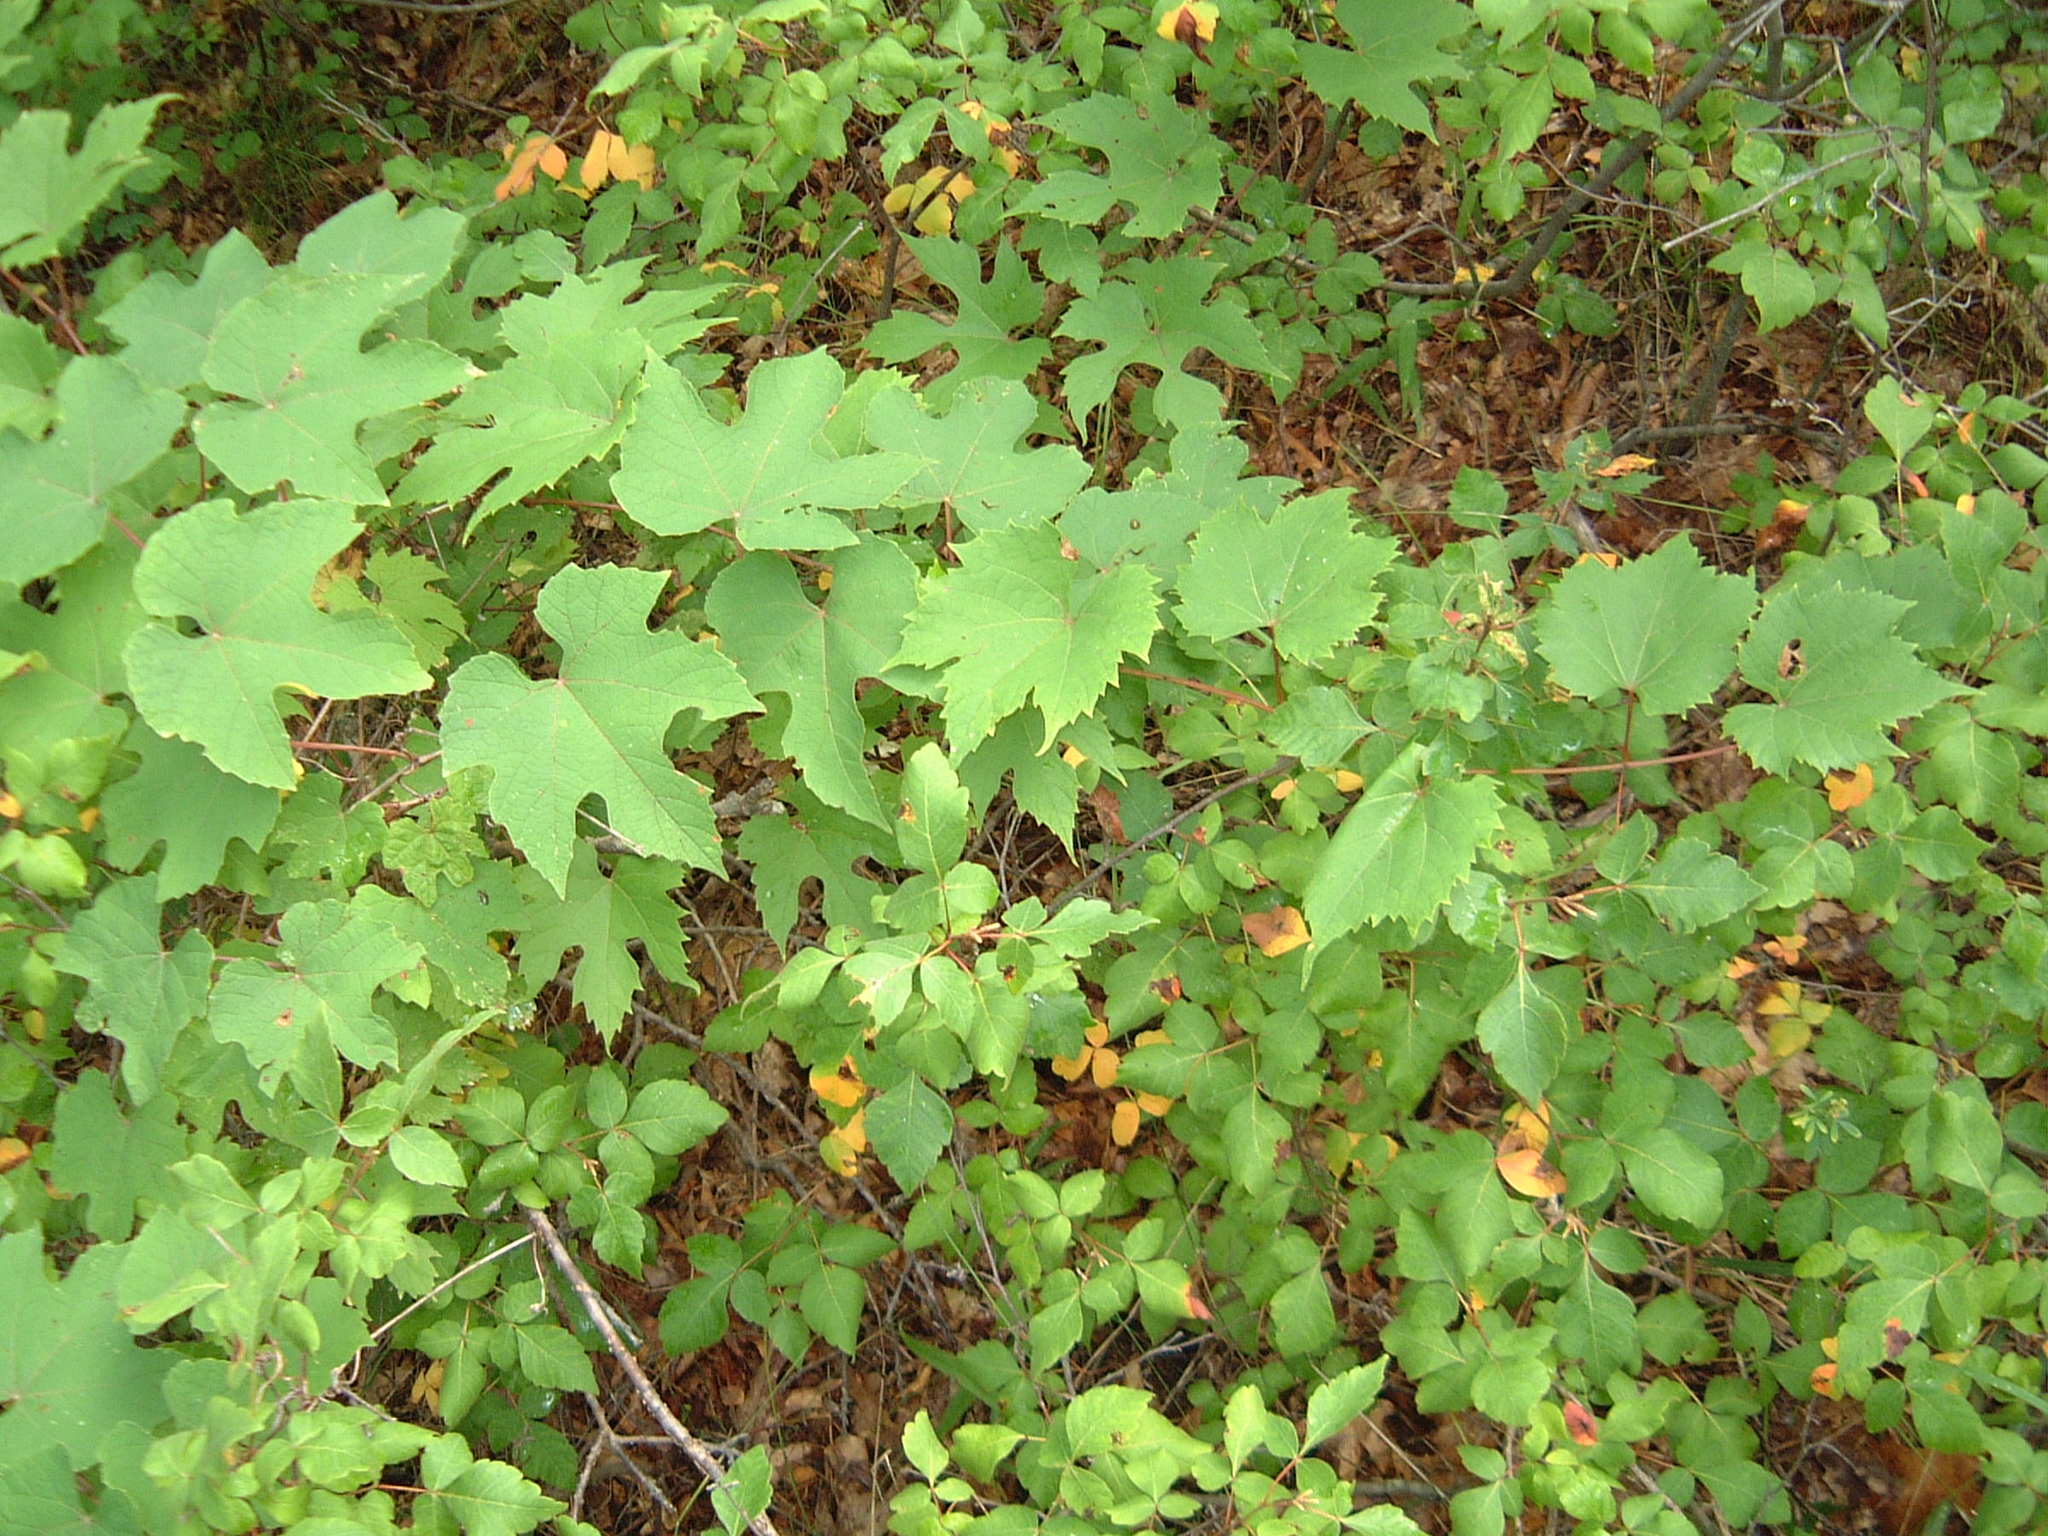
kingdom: Plantae
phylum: Tracheophyta
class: Magnoliopsida
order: Vitales
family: Vitaceae
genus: Vitis
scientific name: Vitis riparia
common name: Frost grape
